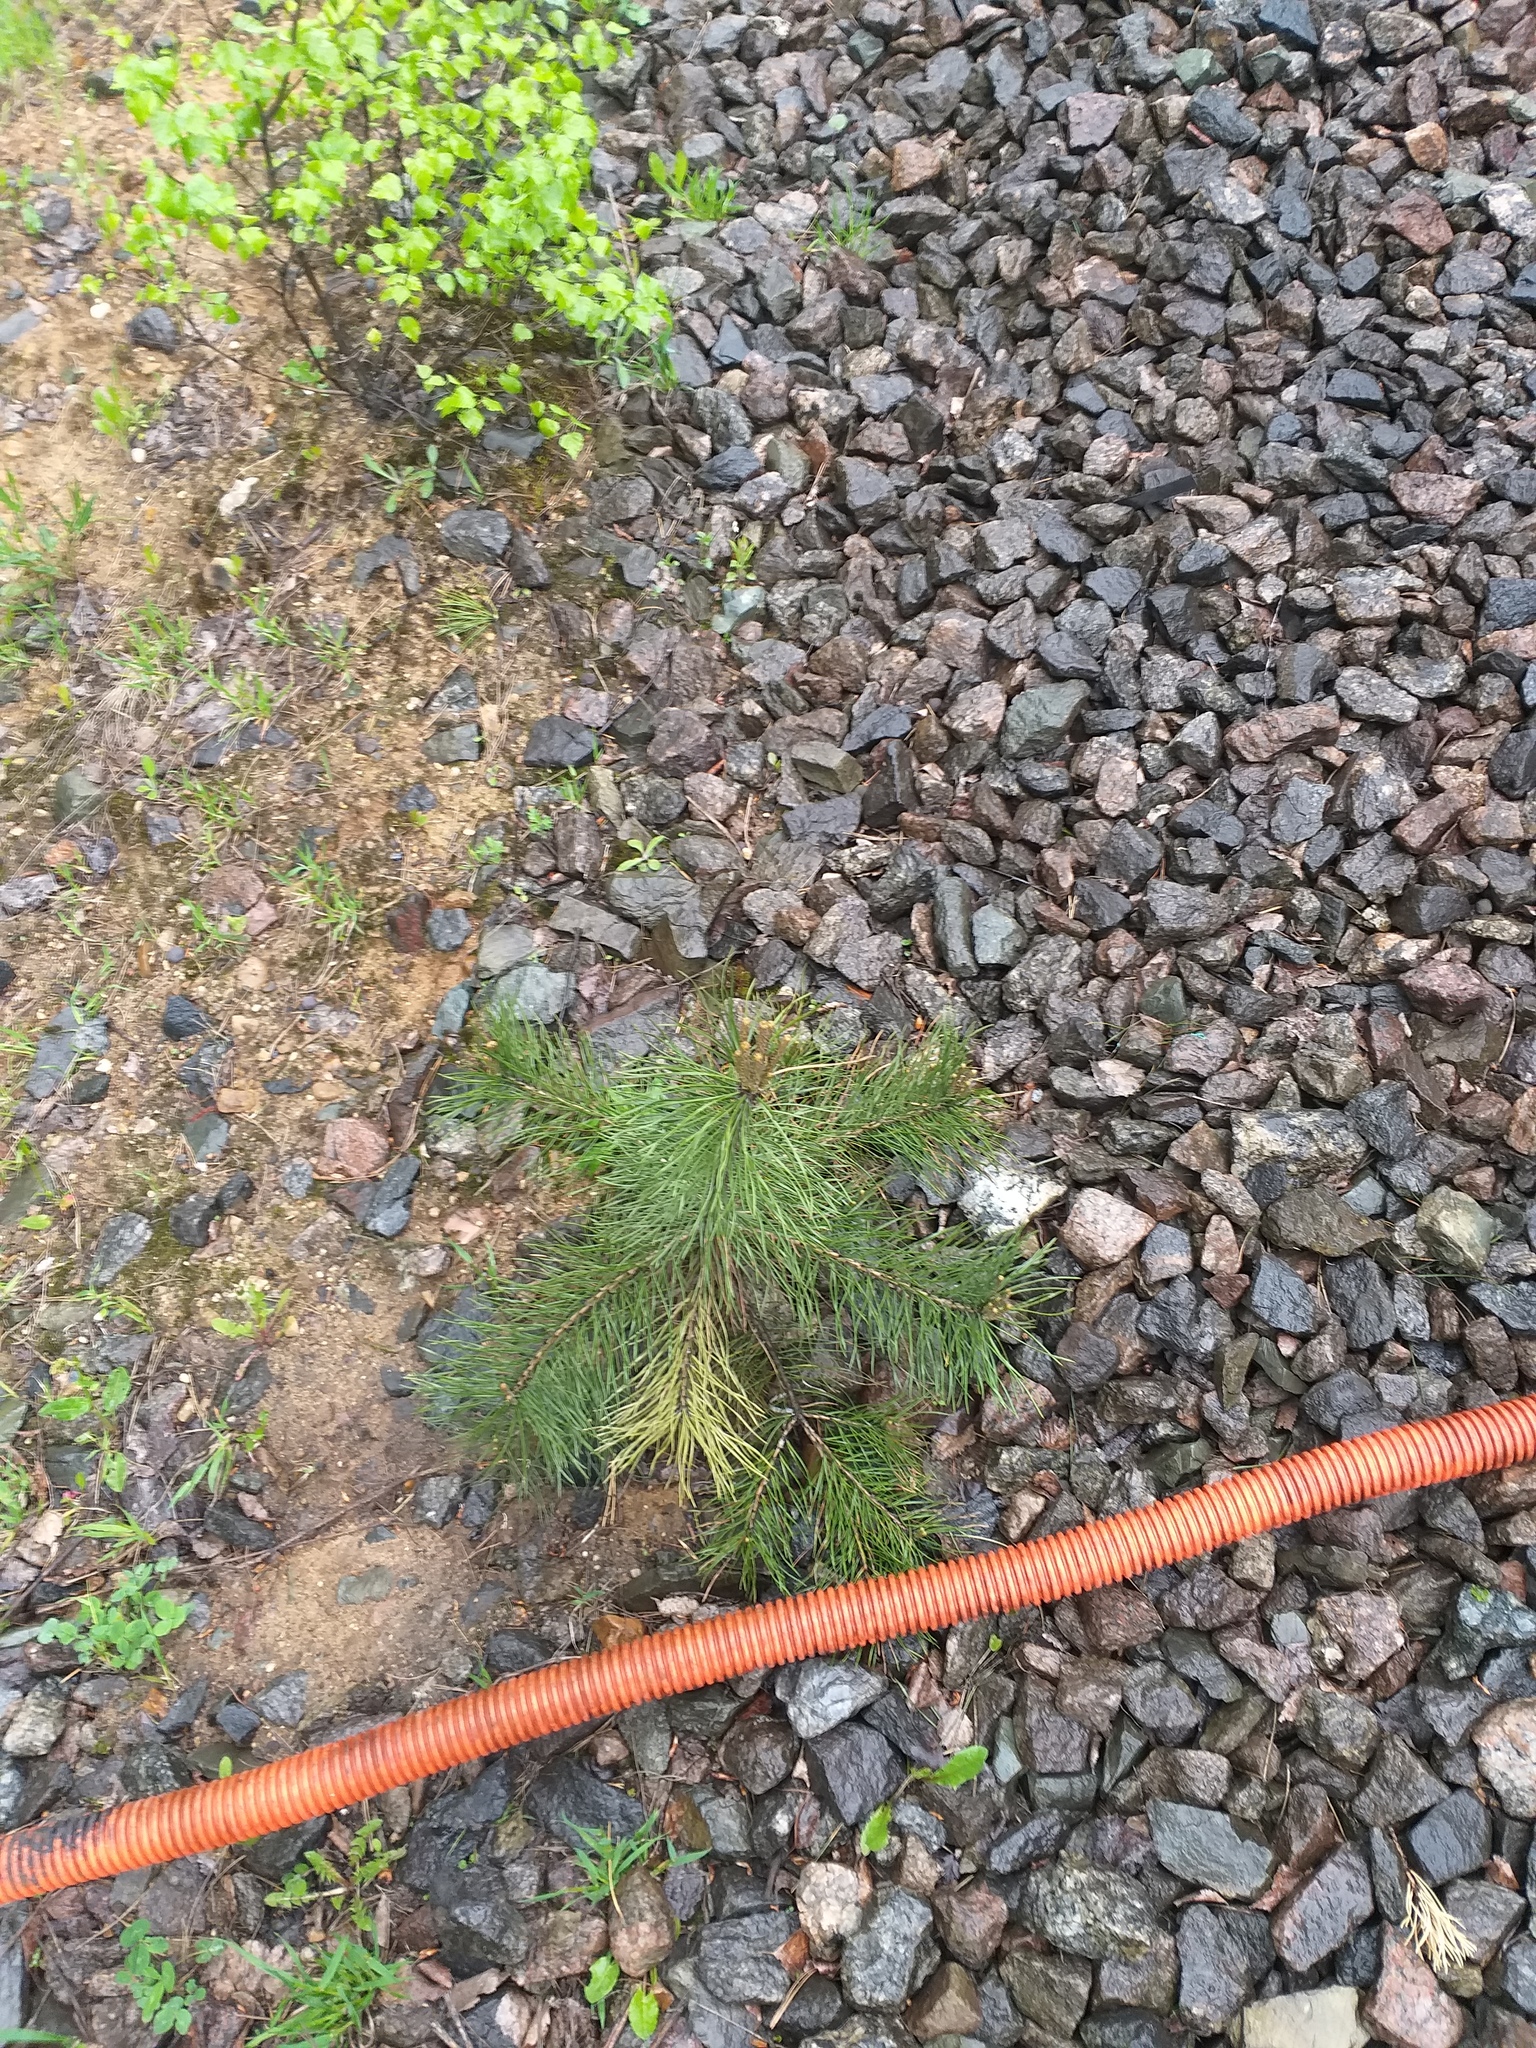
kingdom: Plantae
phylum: Tracheophyta
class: Pinopsida
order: Pinales
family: Pinaceae
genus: Pinus
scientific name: Pinus sylvestris
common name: Scots pine
